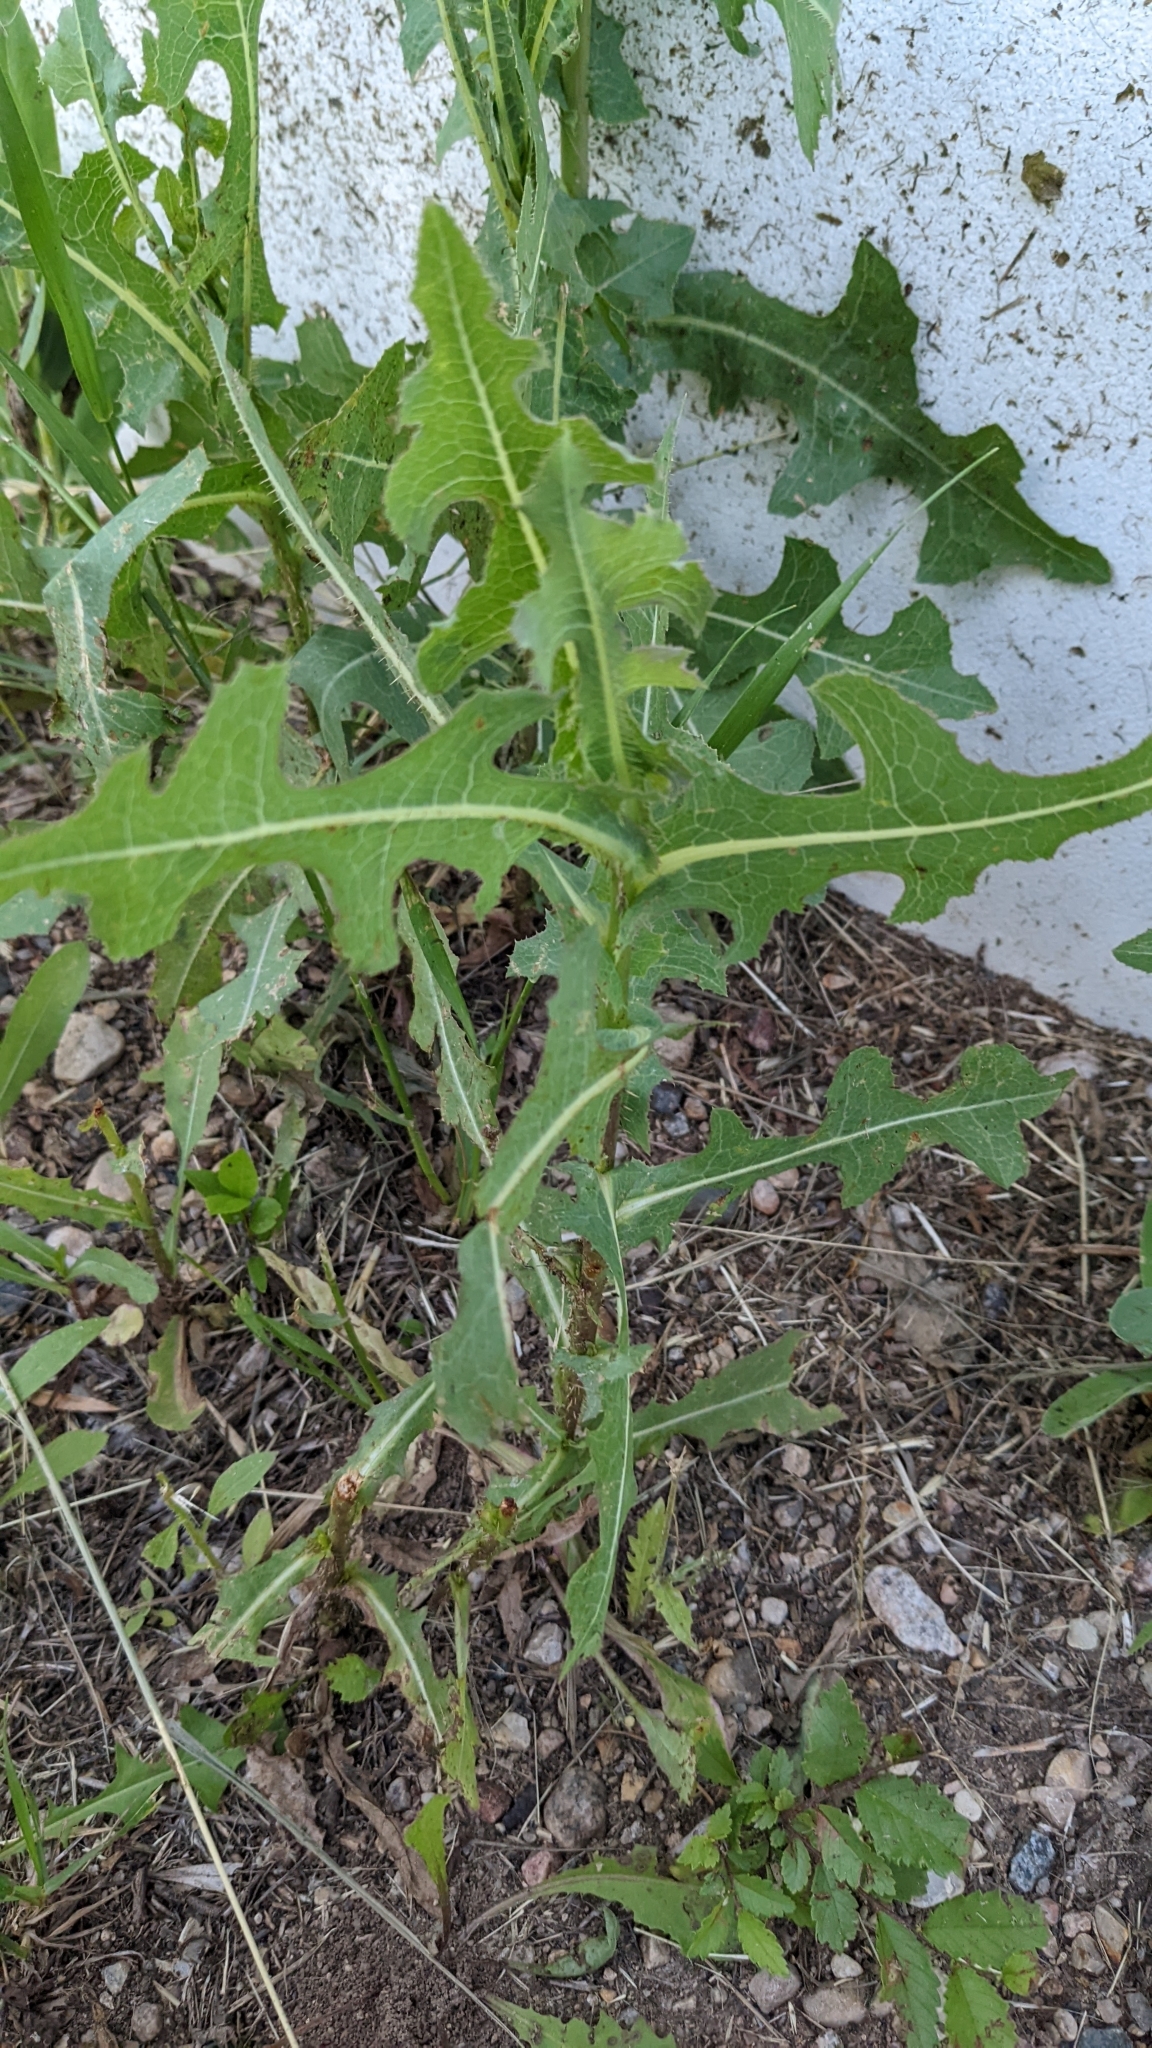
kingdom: Plantae
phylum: Tracheophyta
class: Magnoliopsida
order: Asterales
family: Asteraceae
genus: Lactuca
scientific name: Lactuca serriola
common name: Prickly lettuce
